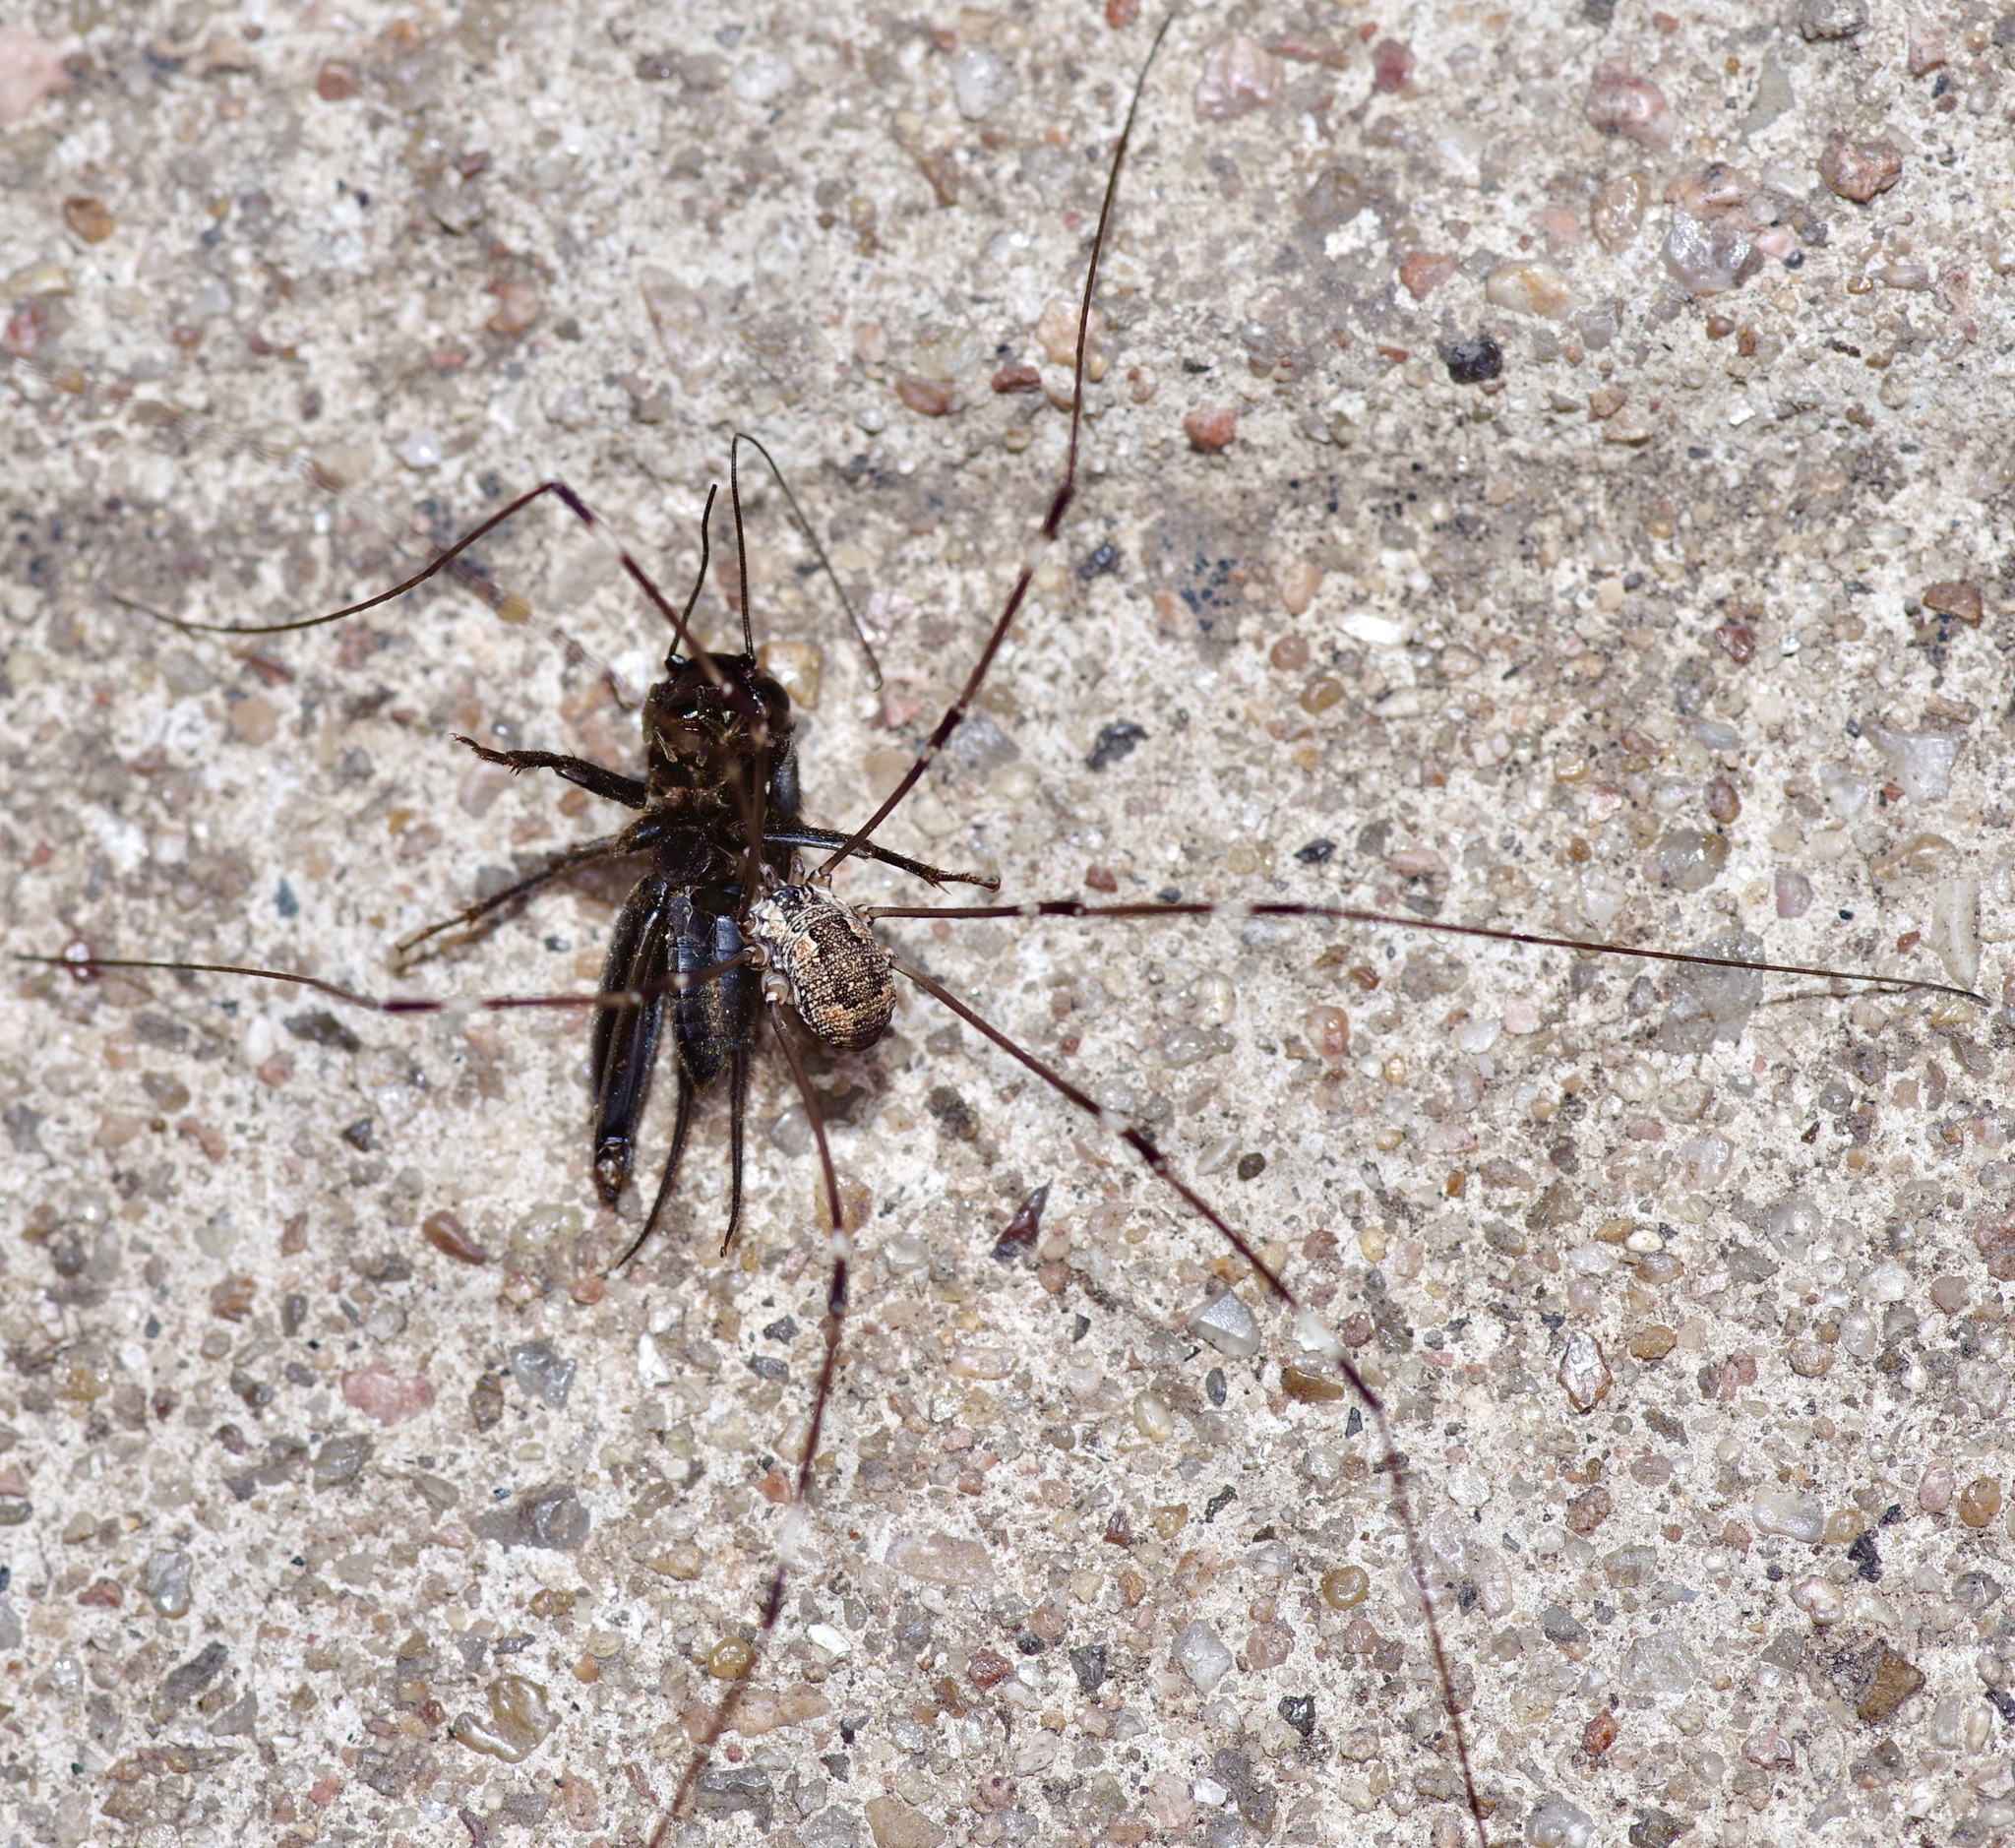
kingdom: Animalia
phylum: Arthropoda
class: Arachnida
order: Opiliones
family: Sclerosomatidae
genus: Leiobunum
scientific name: Leiobunum townsendi
